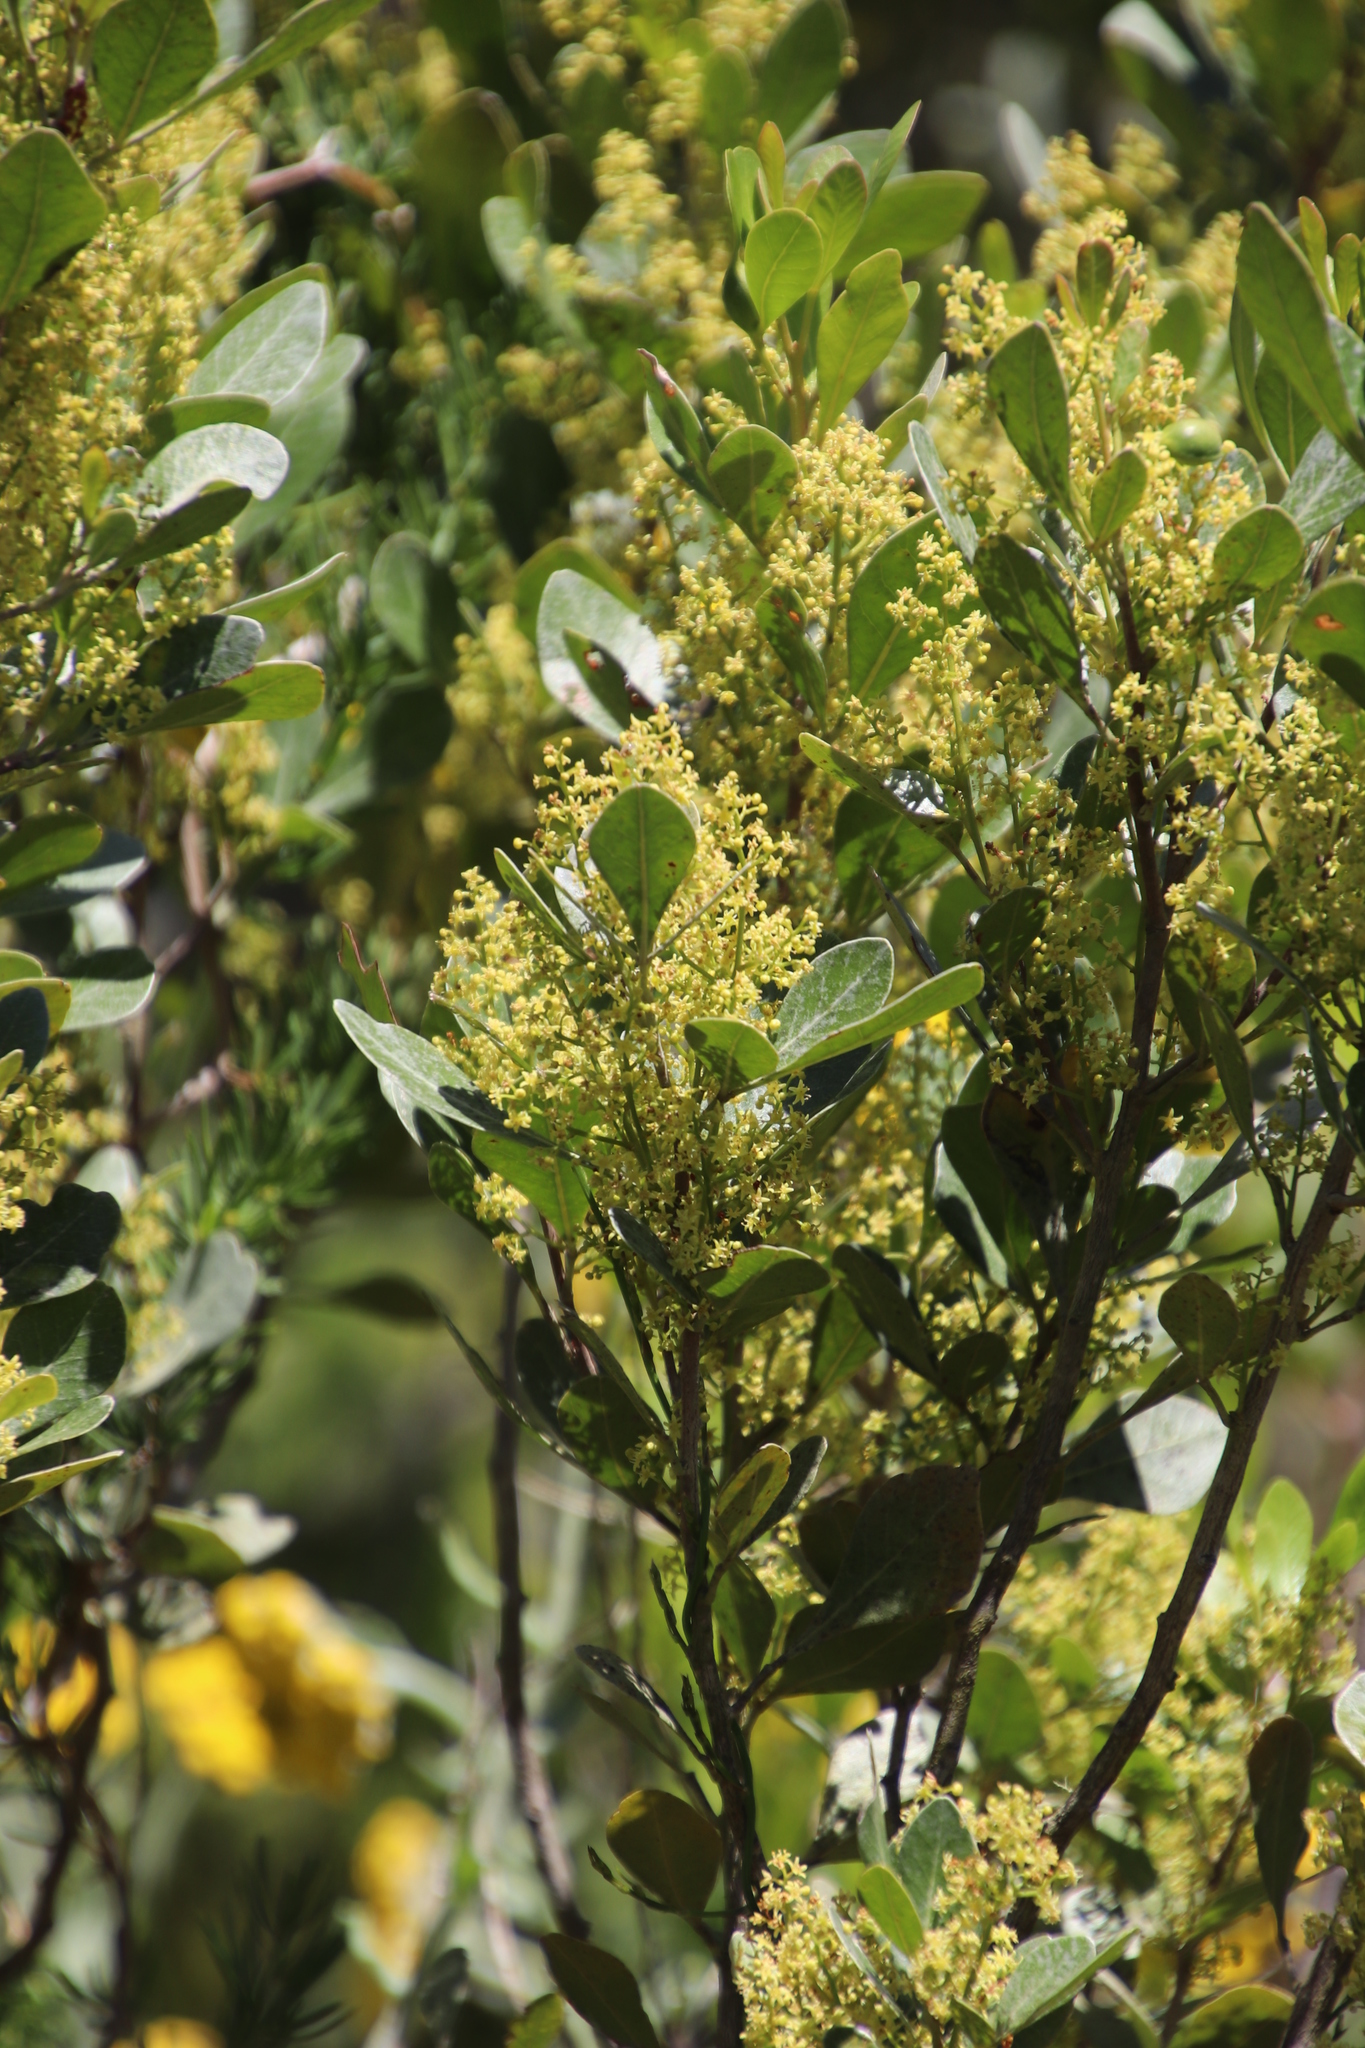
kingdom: Plantae
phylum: Tracheophyta
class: Magnoliopsida
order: Sapindales
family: Anacardiaceae
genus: Searsia
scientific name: Searsia lucida
